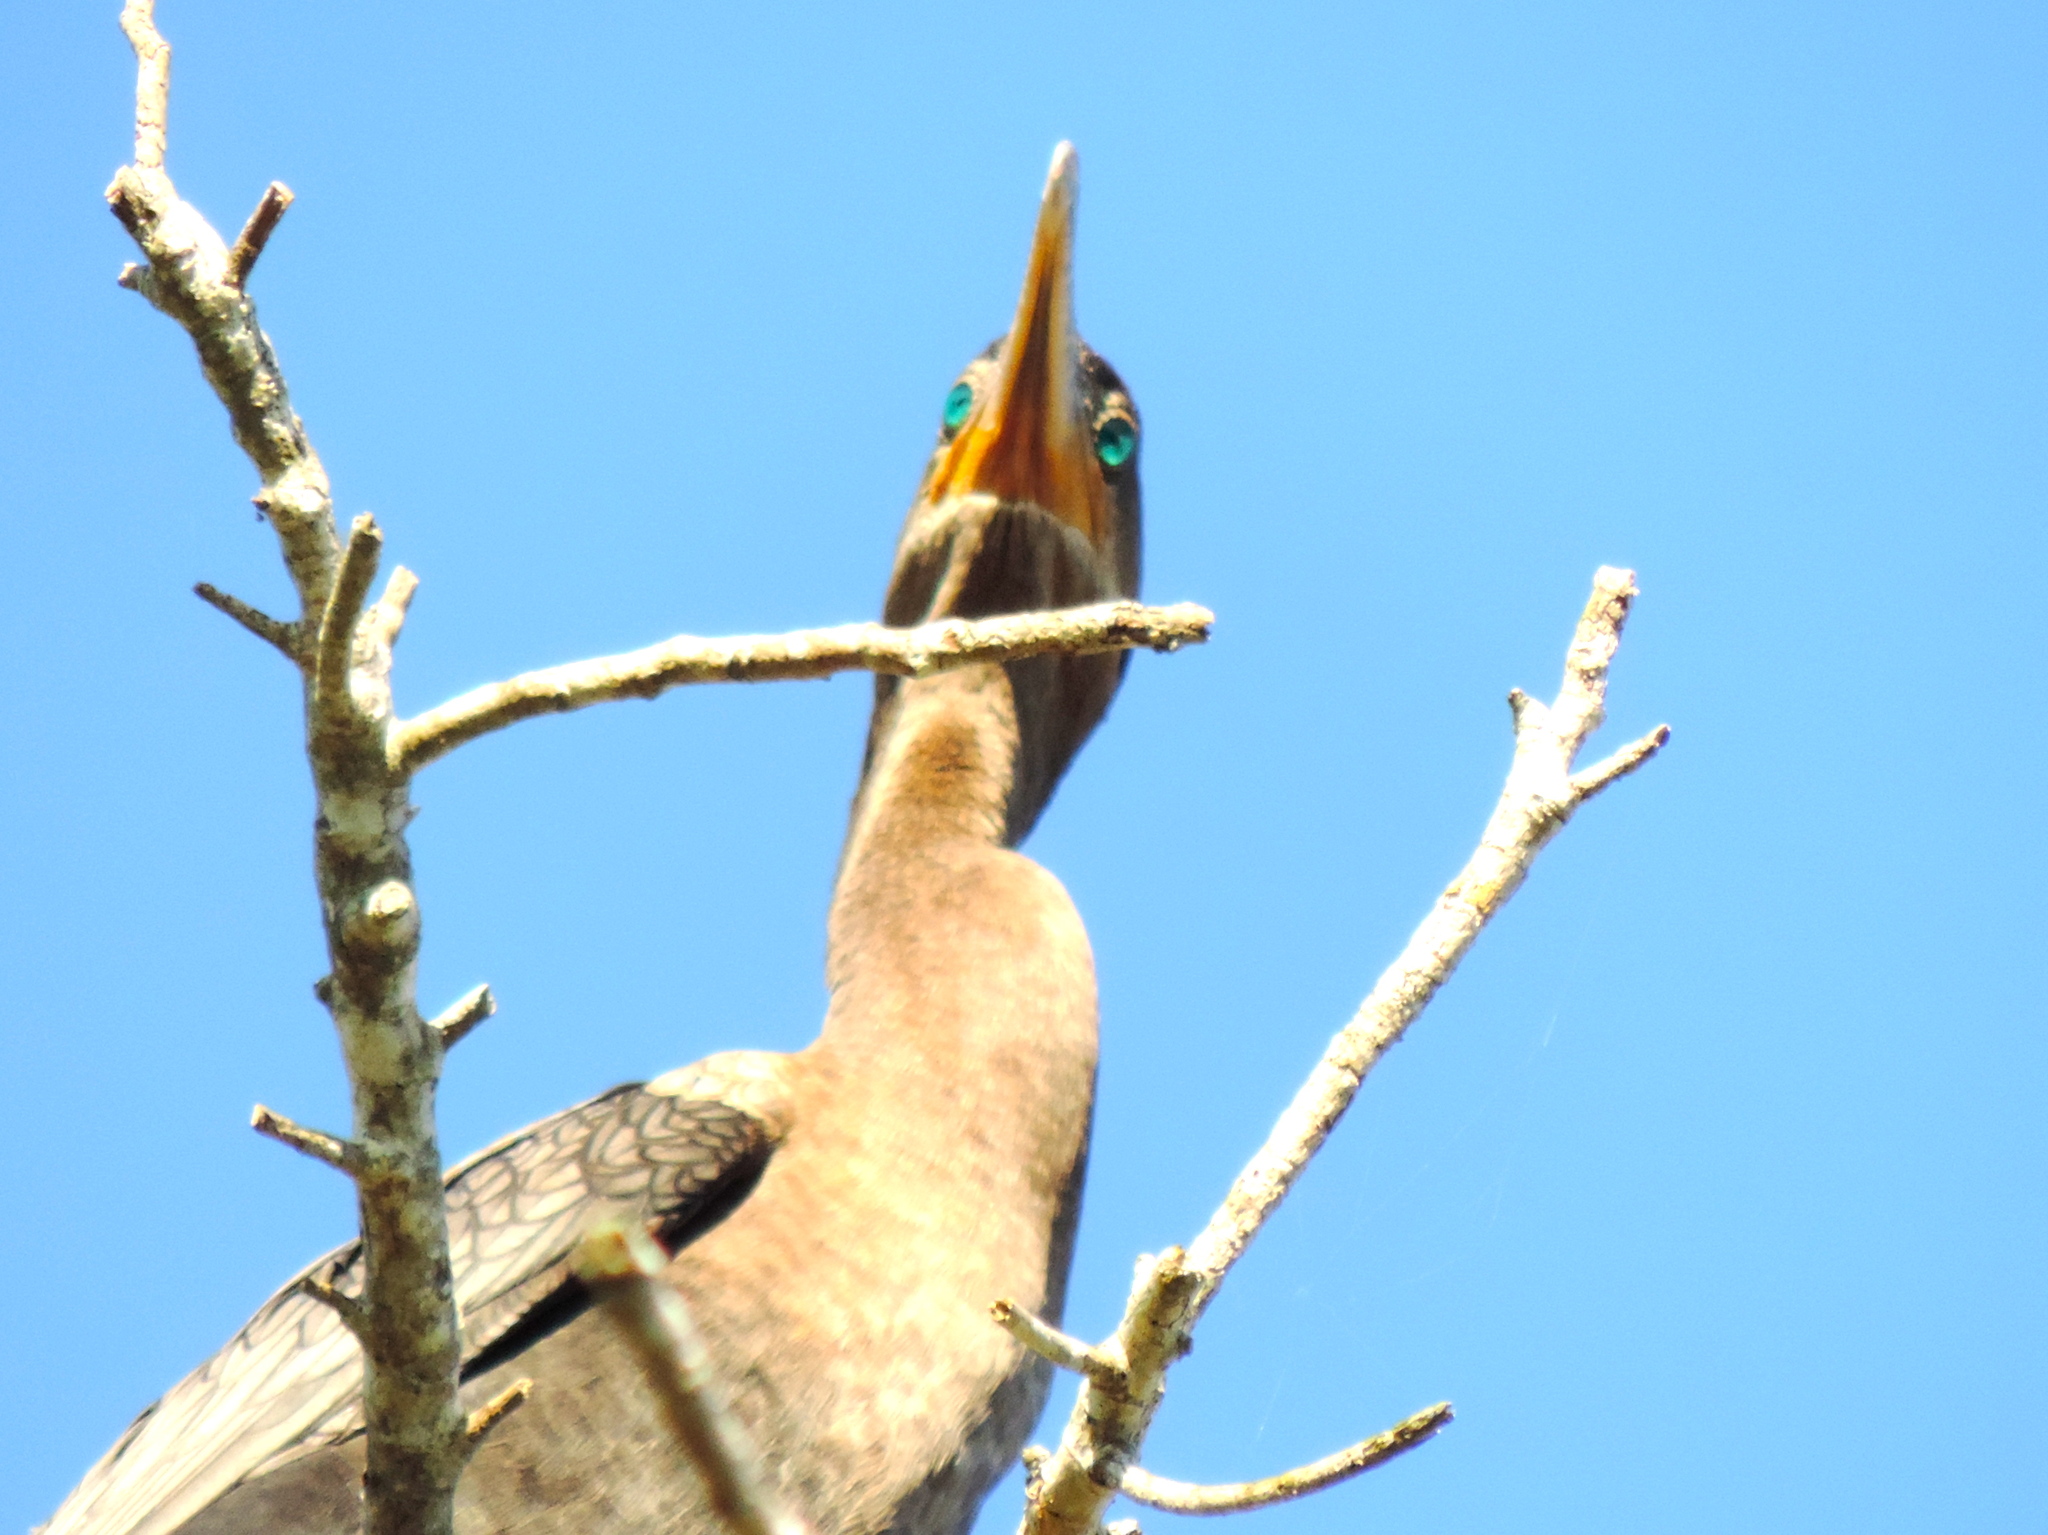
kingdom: Animalia
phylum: Chordata
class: Aves
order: Suliformes
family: Phalacrocoracidae
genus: Phalacrocorax
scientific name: Phalacrocorax brasilianus
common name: Neotropic cormorant
